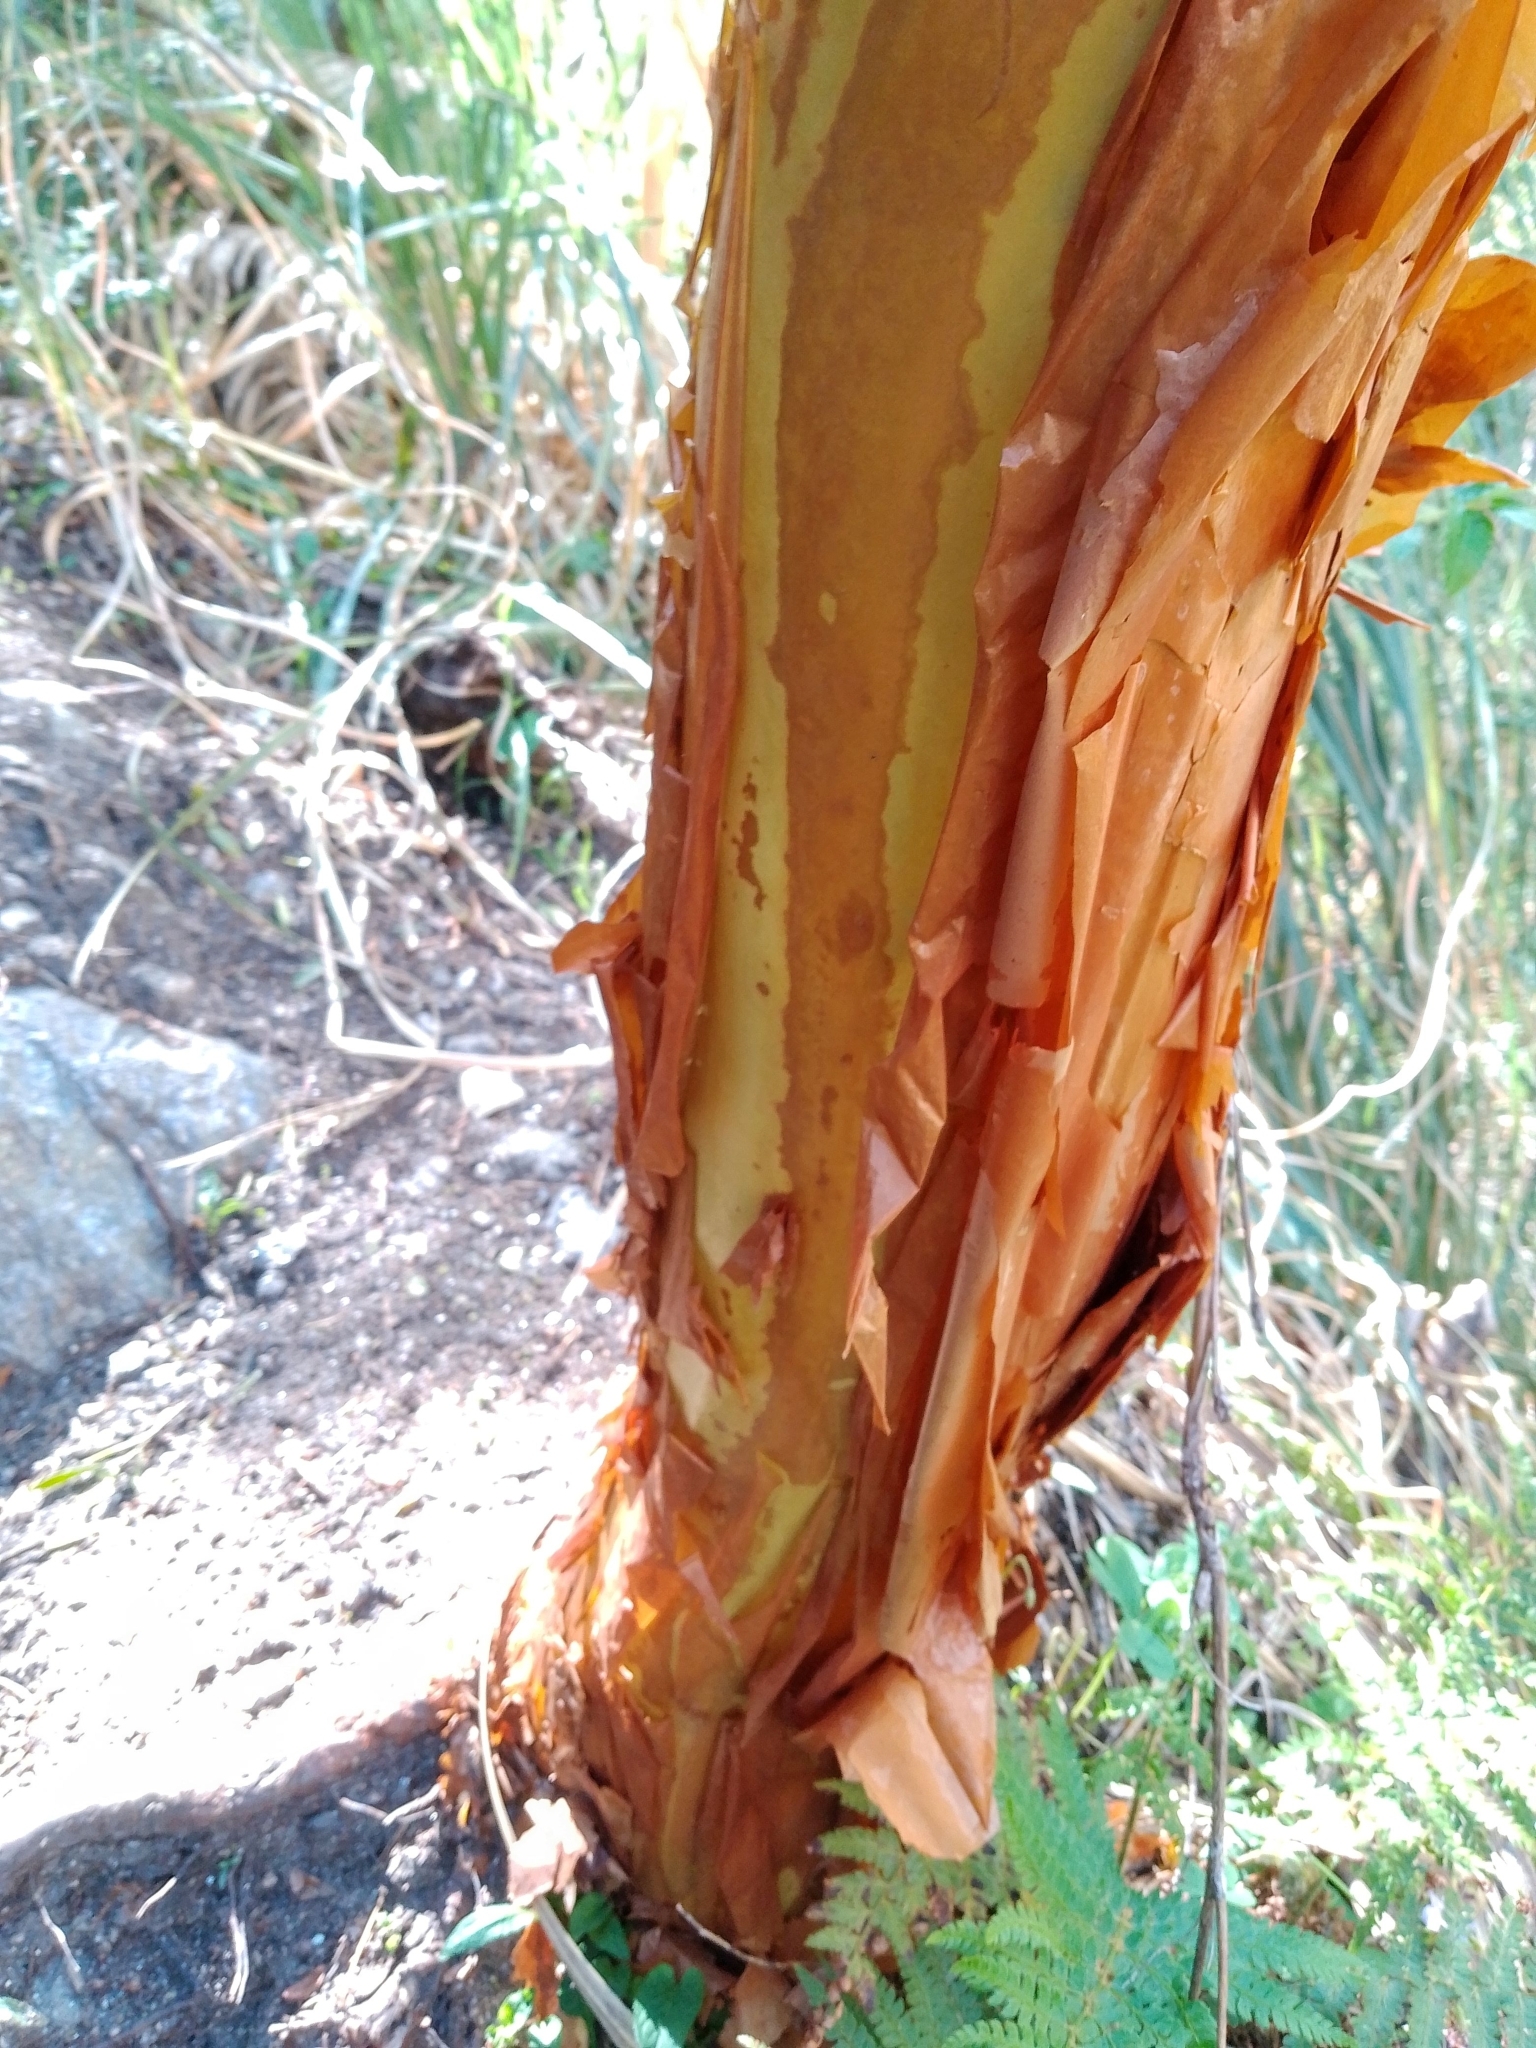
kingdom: Plantae
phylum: Tracheophyta
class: Magnoliopsida
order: Rosales
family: Rosaceae
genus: Polylepis
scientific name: Polylepis australis
